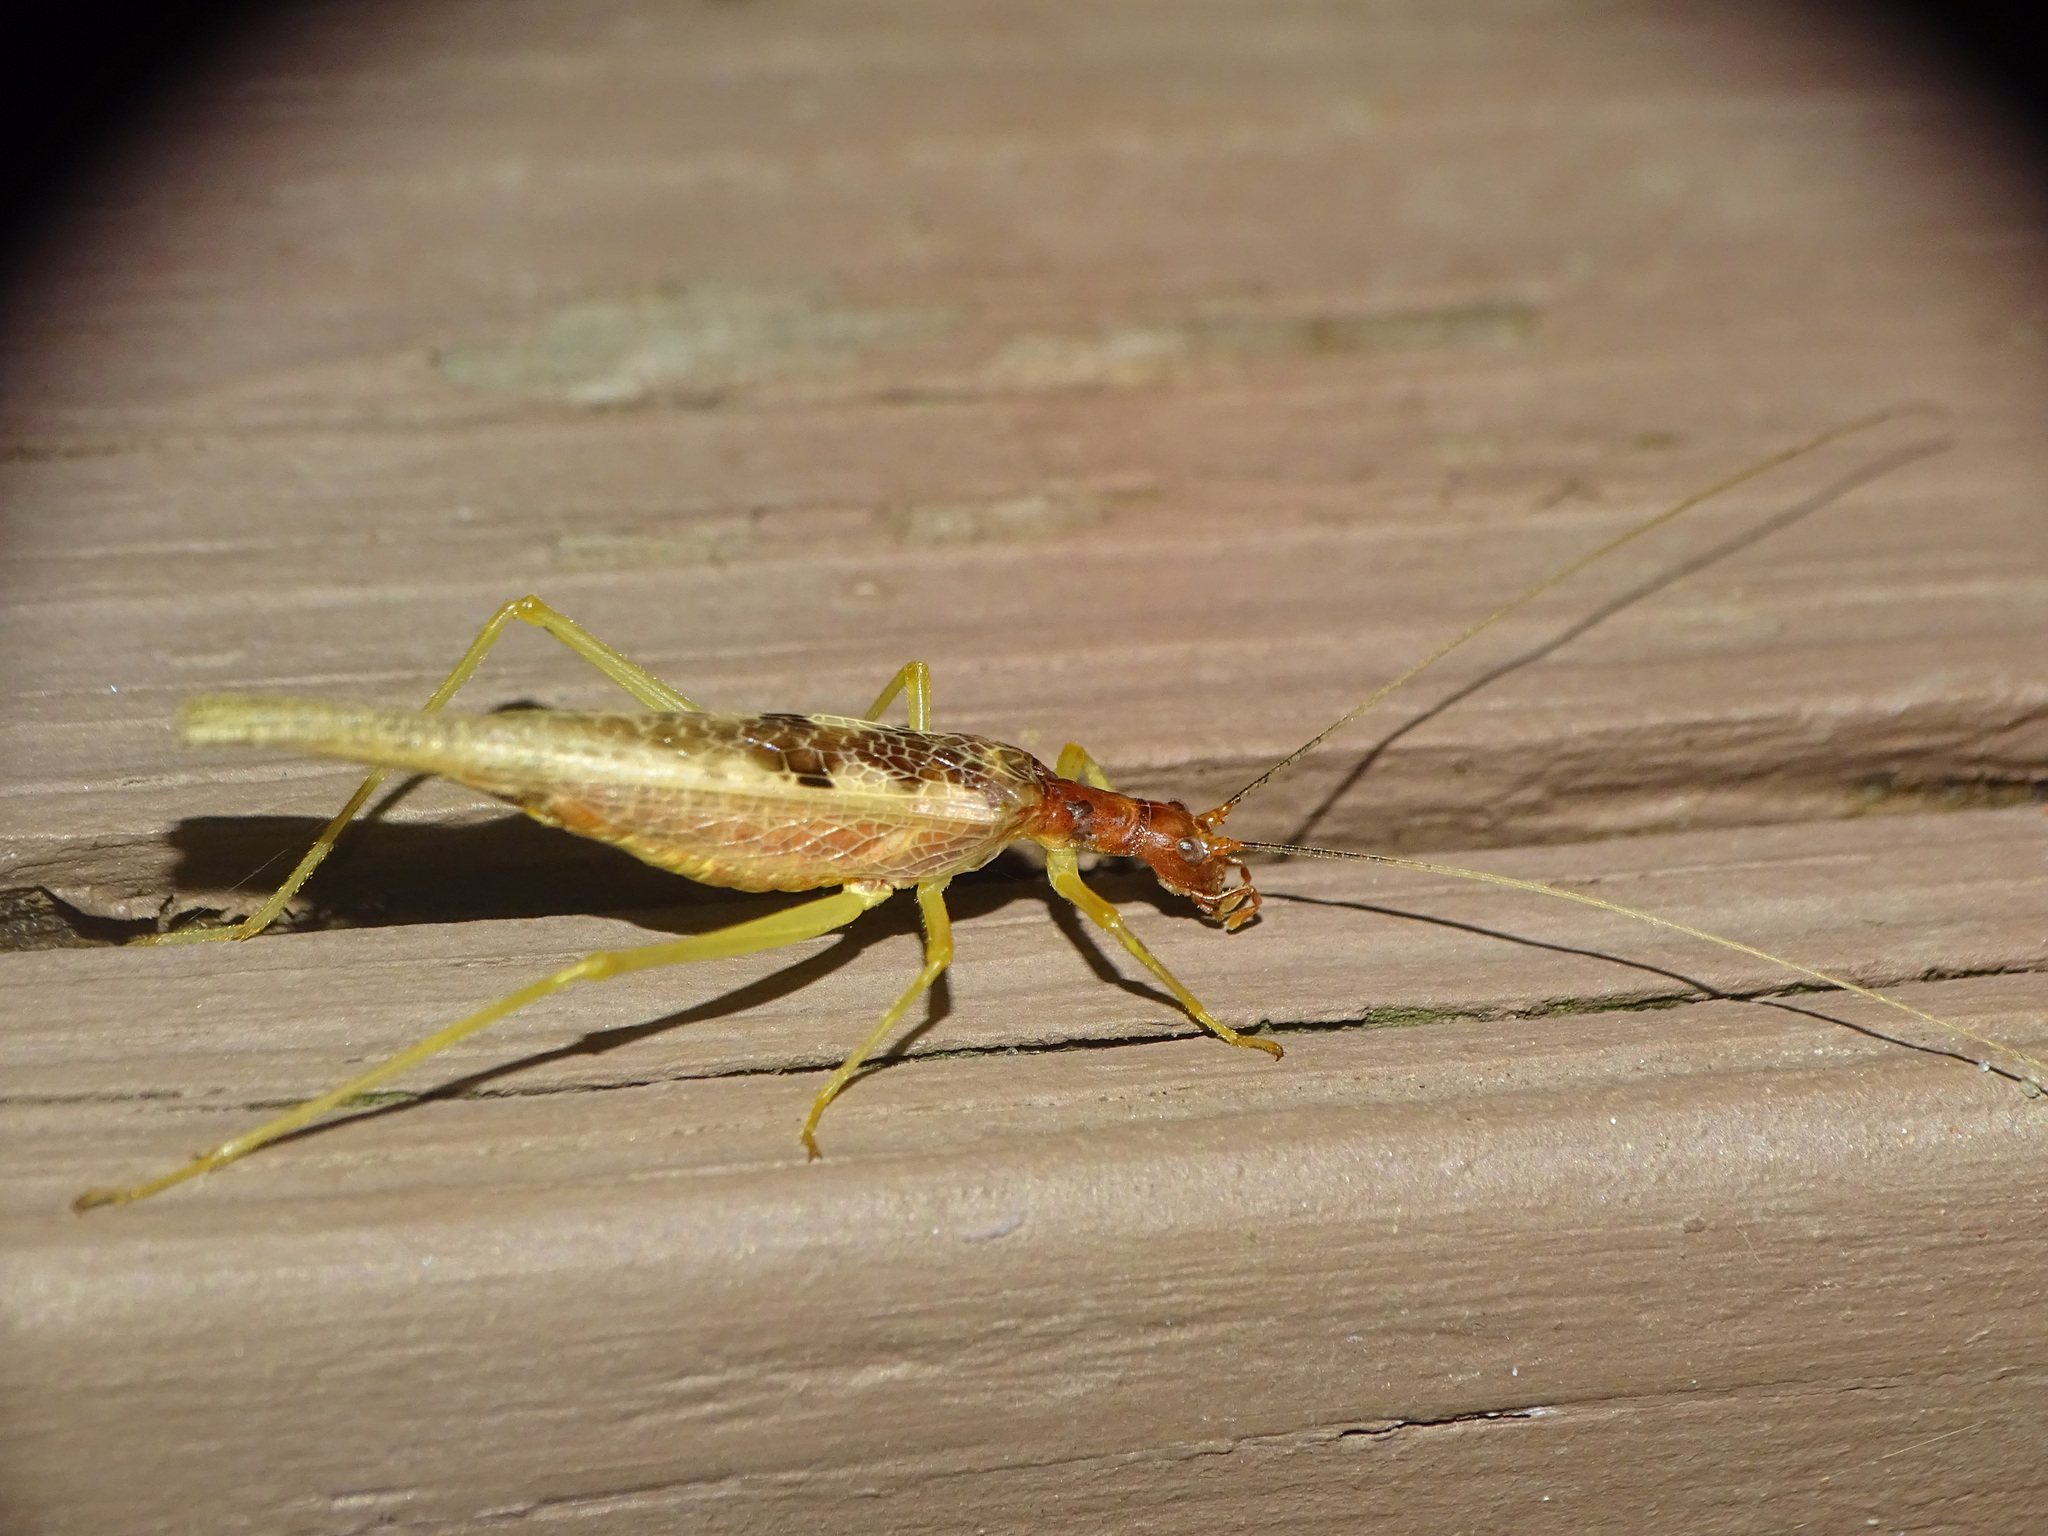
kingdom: Animalia
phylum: Arthropoda
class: Insecta
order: Orthoptera
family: Gryllidae
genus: Neoxabea
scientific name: Neoxabea bipunctata
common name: Two-spotted tree cricket
